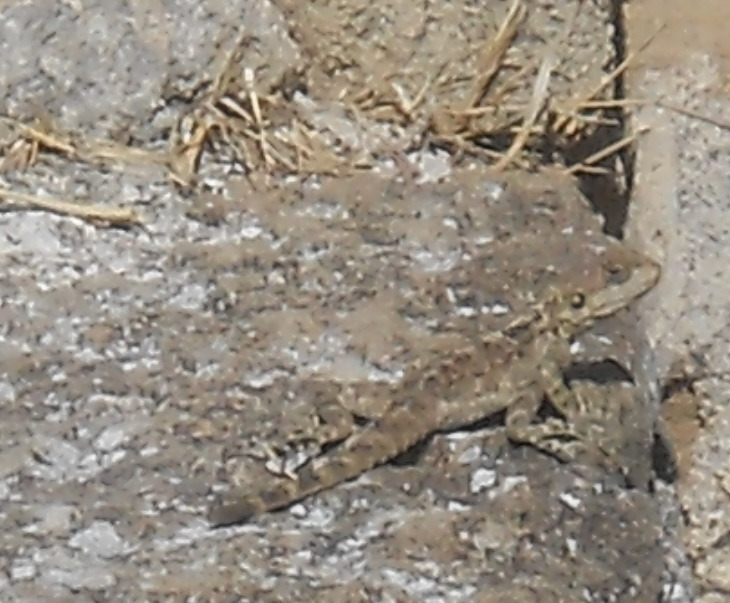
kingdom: Animalia
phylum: Chordata
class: Squamata
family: Agamidae
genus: Laudakia
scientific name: Laudakia
